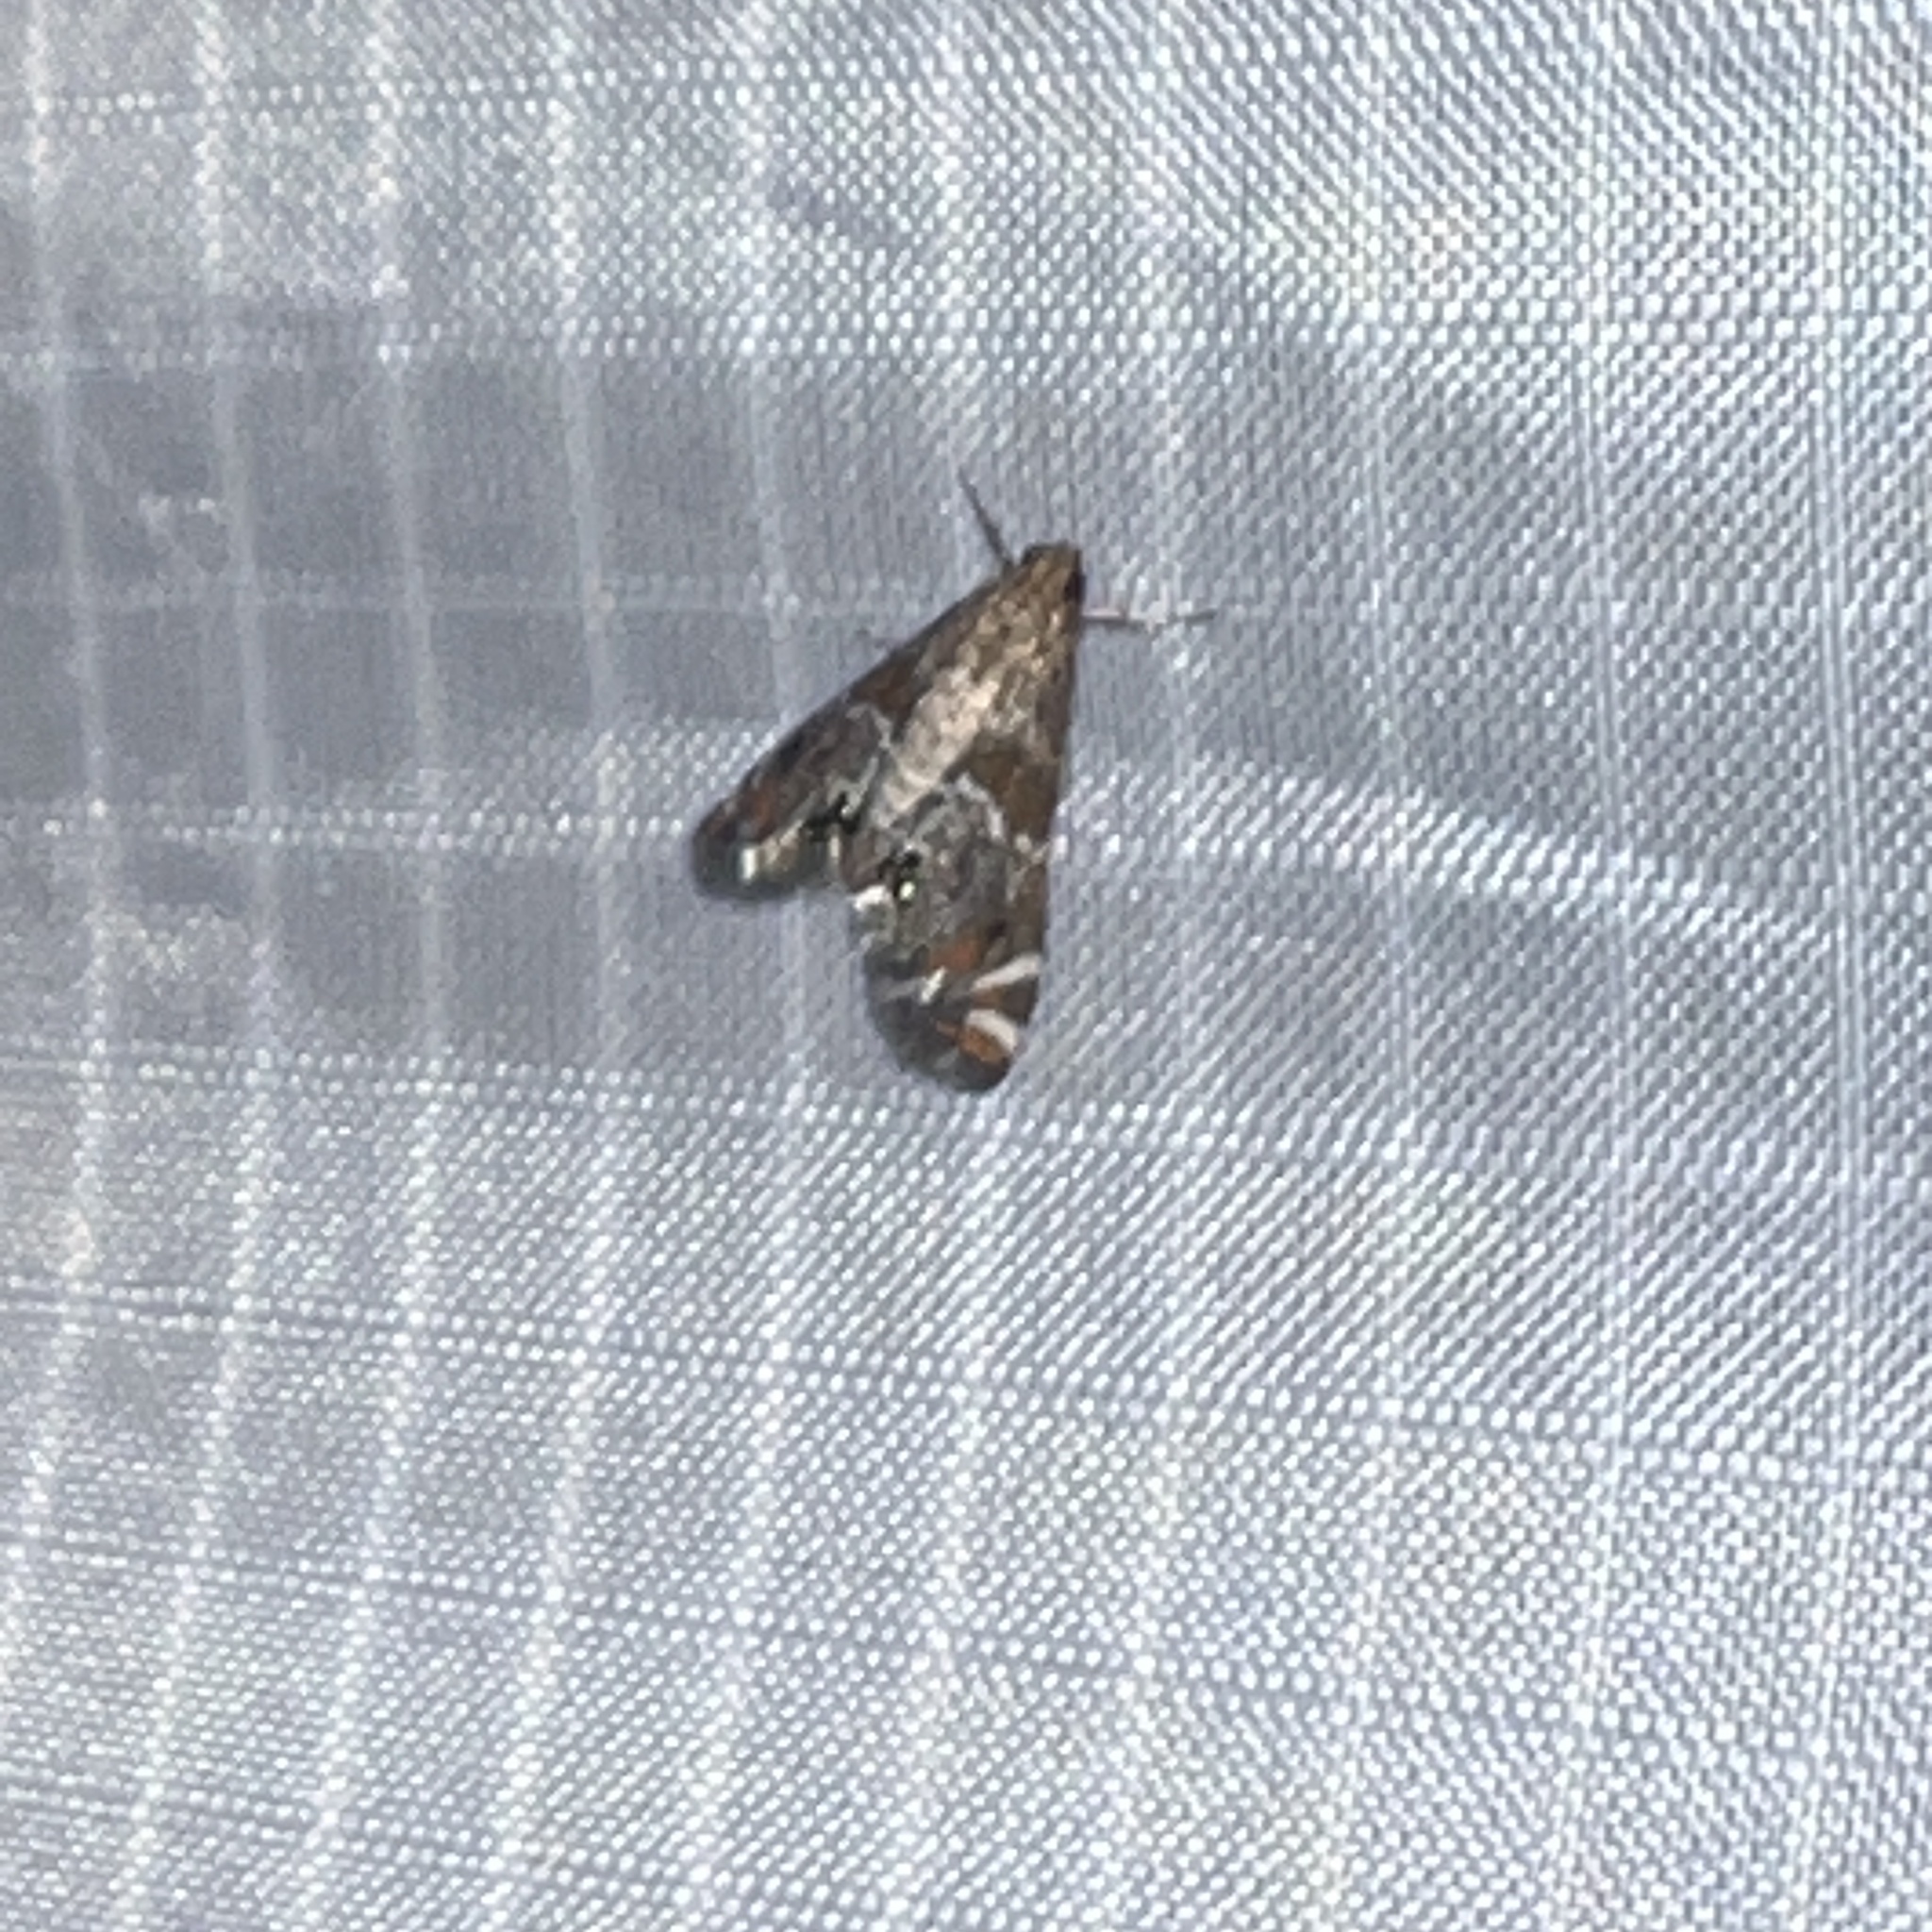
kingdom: Animalia
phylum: Arthropoda
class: Insecta
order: Lepidoptera
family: Crambidae
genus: Petrophila
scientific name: Petrophila jaliscalis
